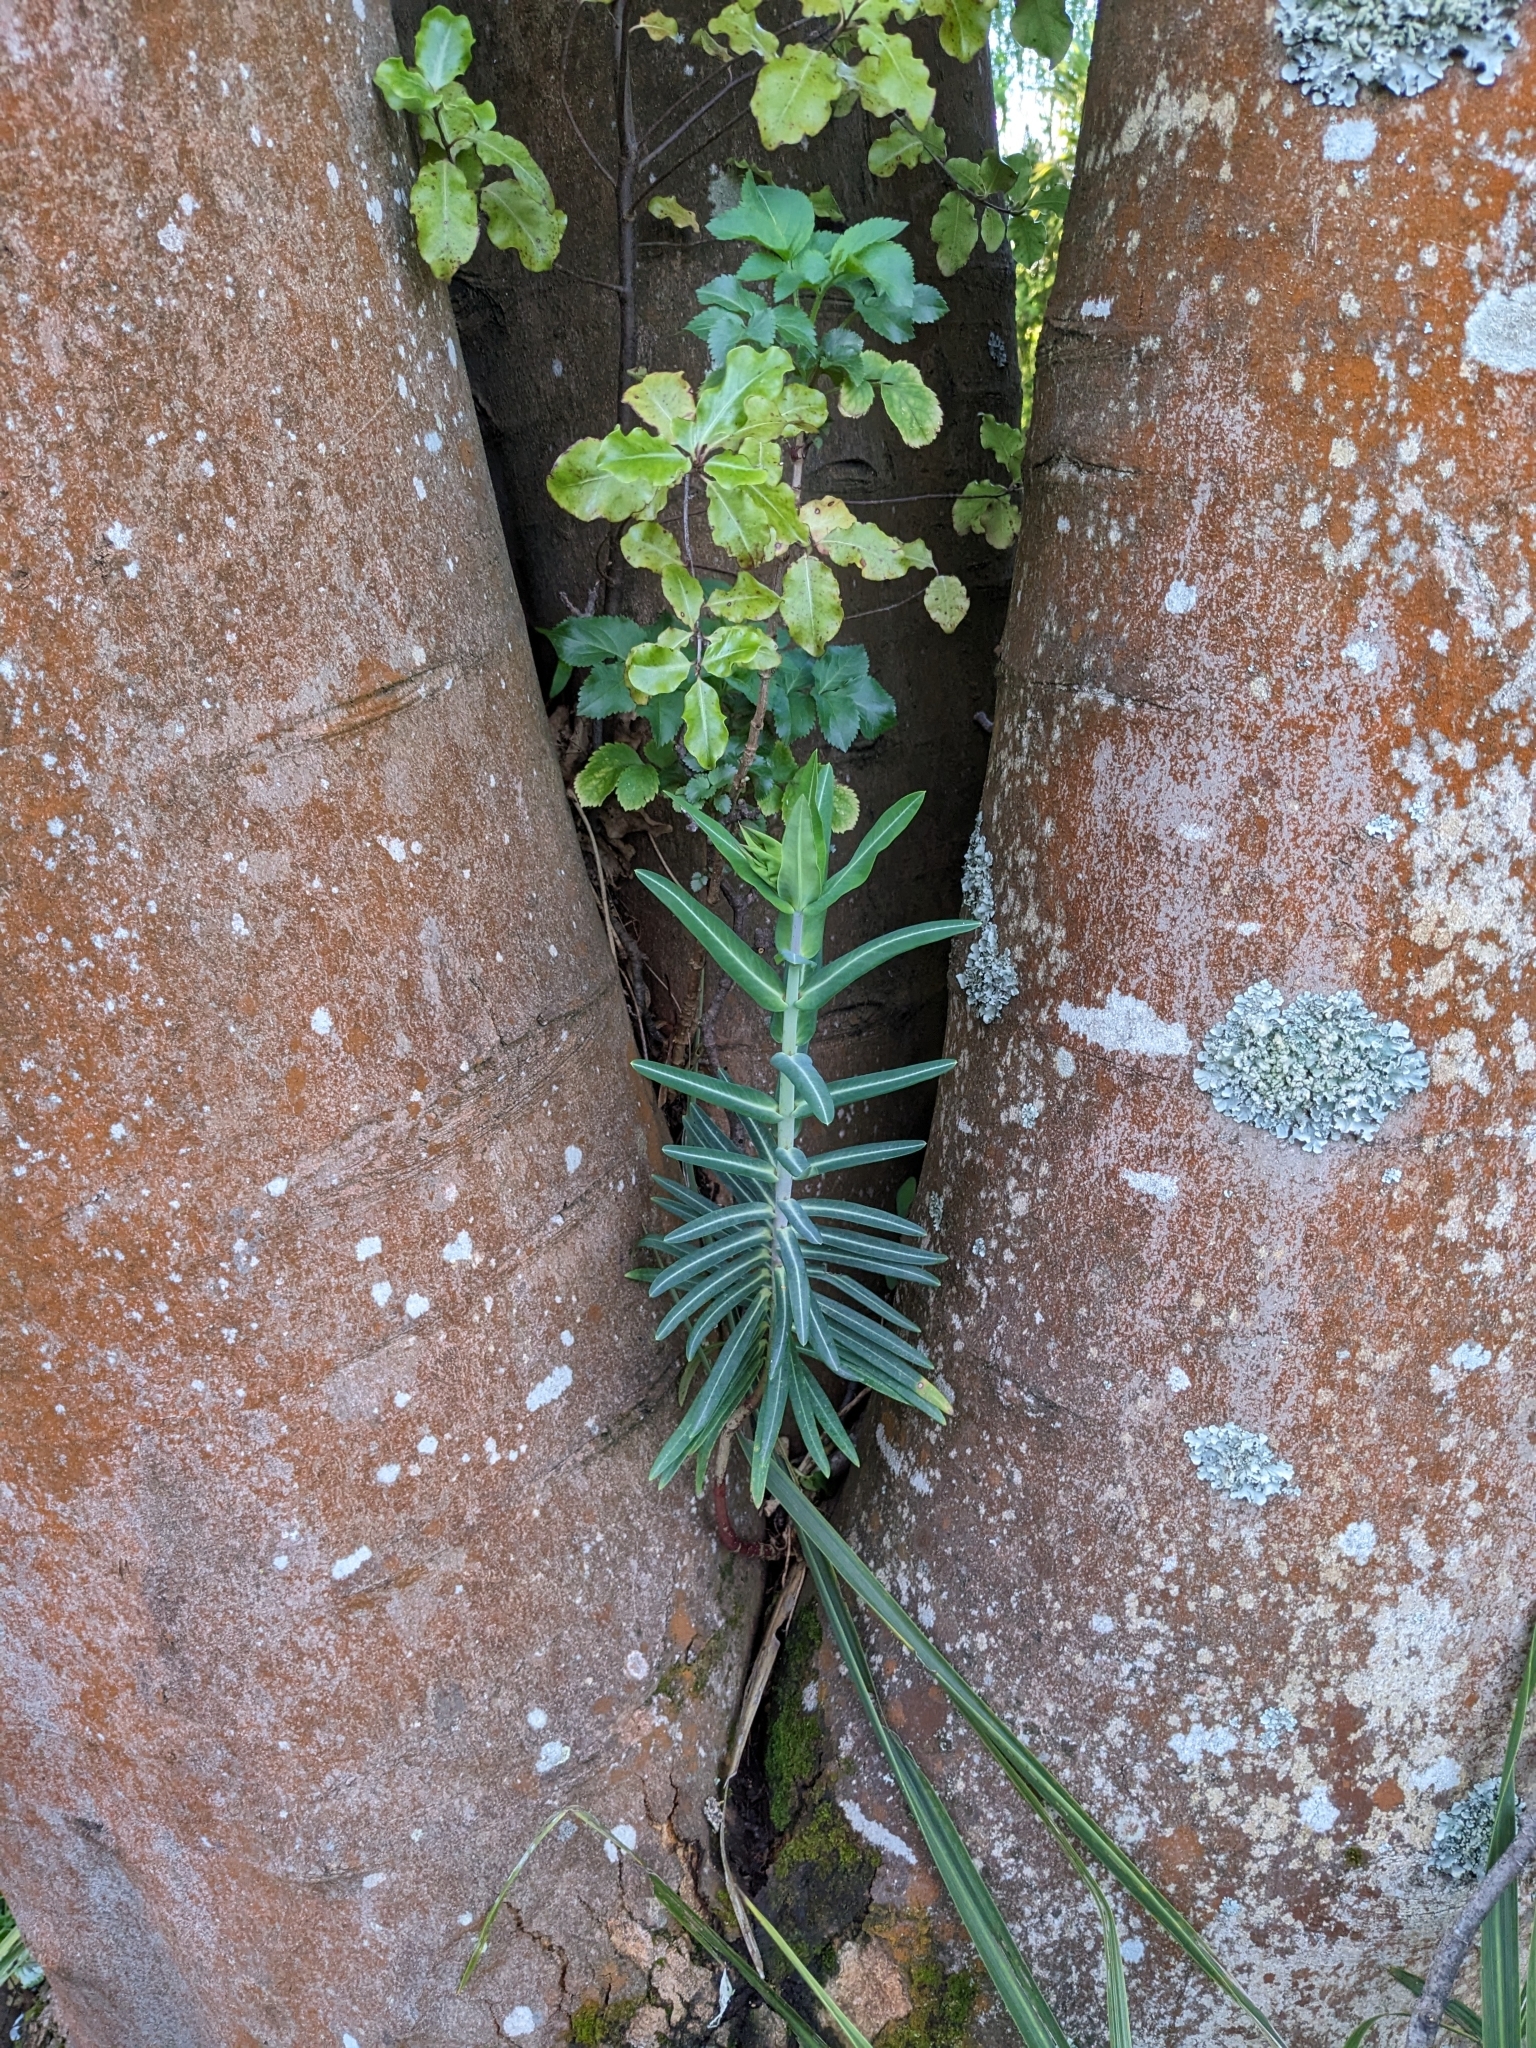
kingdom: Plantae
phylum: Tracheophyta
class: Magnoliopsida
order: Malpighiales
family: Euphorbiaceae
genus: Euphorbia
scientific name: Euphorbia lathyris
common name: Caper spurge
